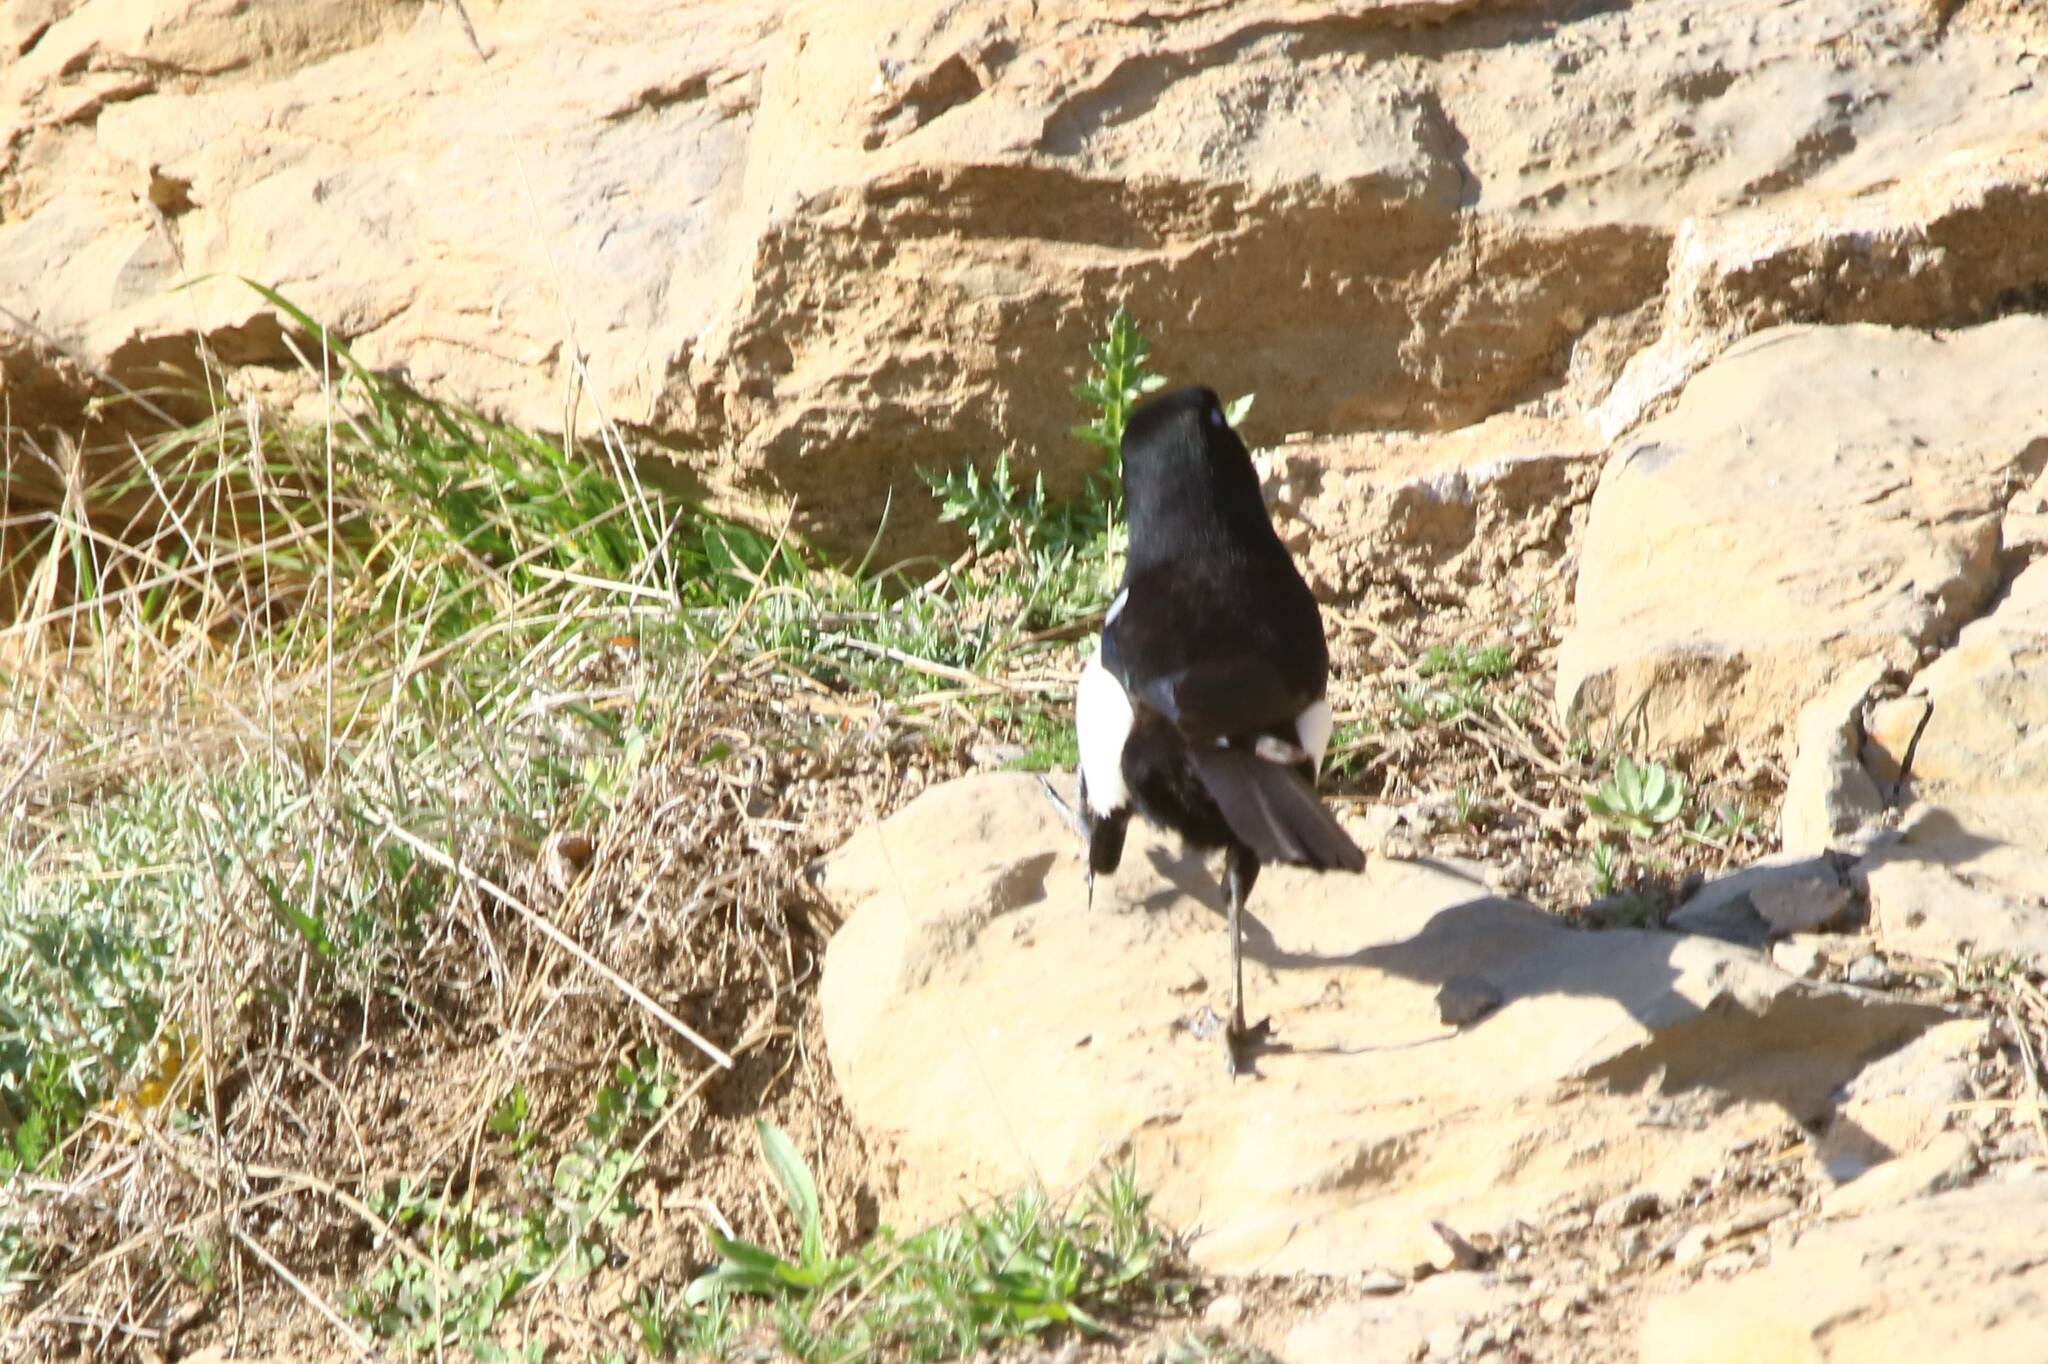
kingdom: Animalia
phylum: Chordata
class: Aves
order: Passeriformes
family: Corvidae
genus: Pica
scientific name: Pica mauritanica
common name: Maghreb magpie
